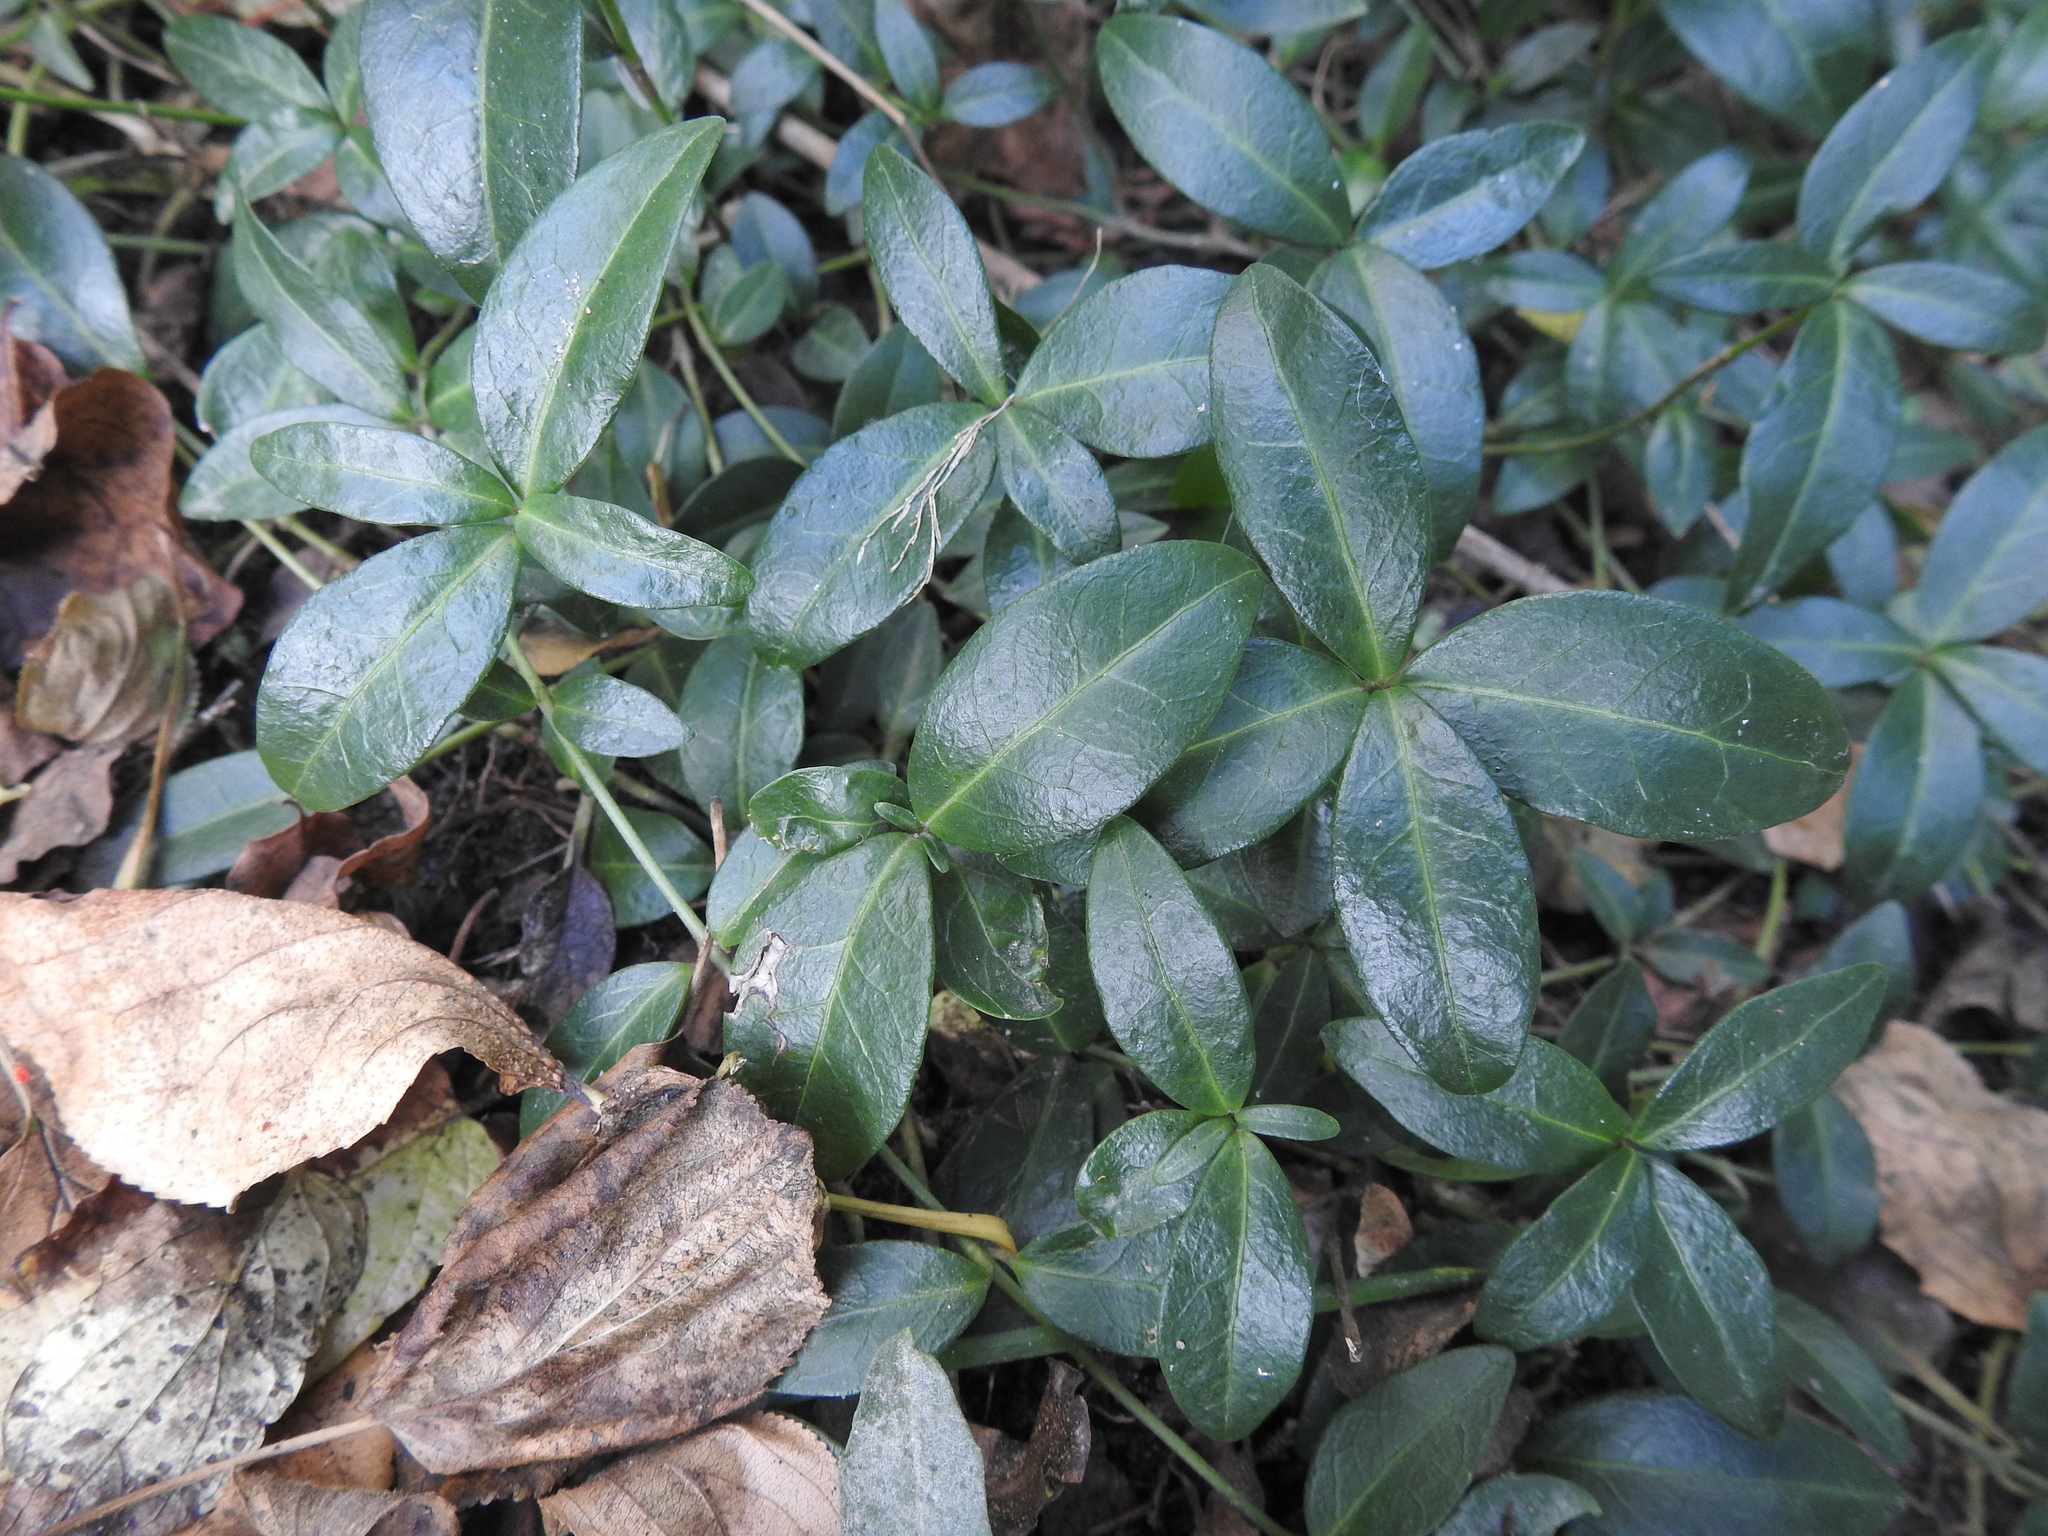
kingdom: Plantae
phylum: Tracheophyta
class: Magnoliopsida
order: Gentianales
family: Apocynaceae
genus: Vinca
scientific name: Vinca minor
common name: Lesser periwinkle
